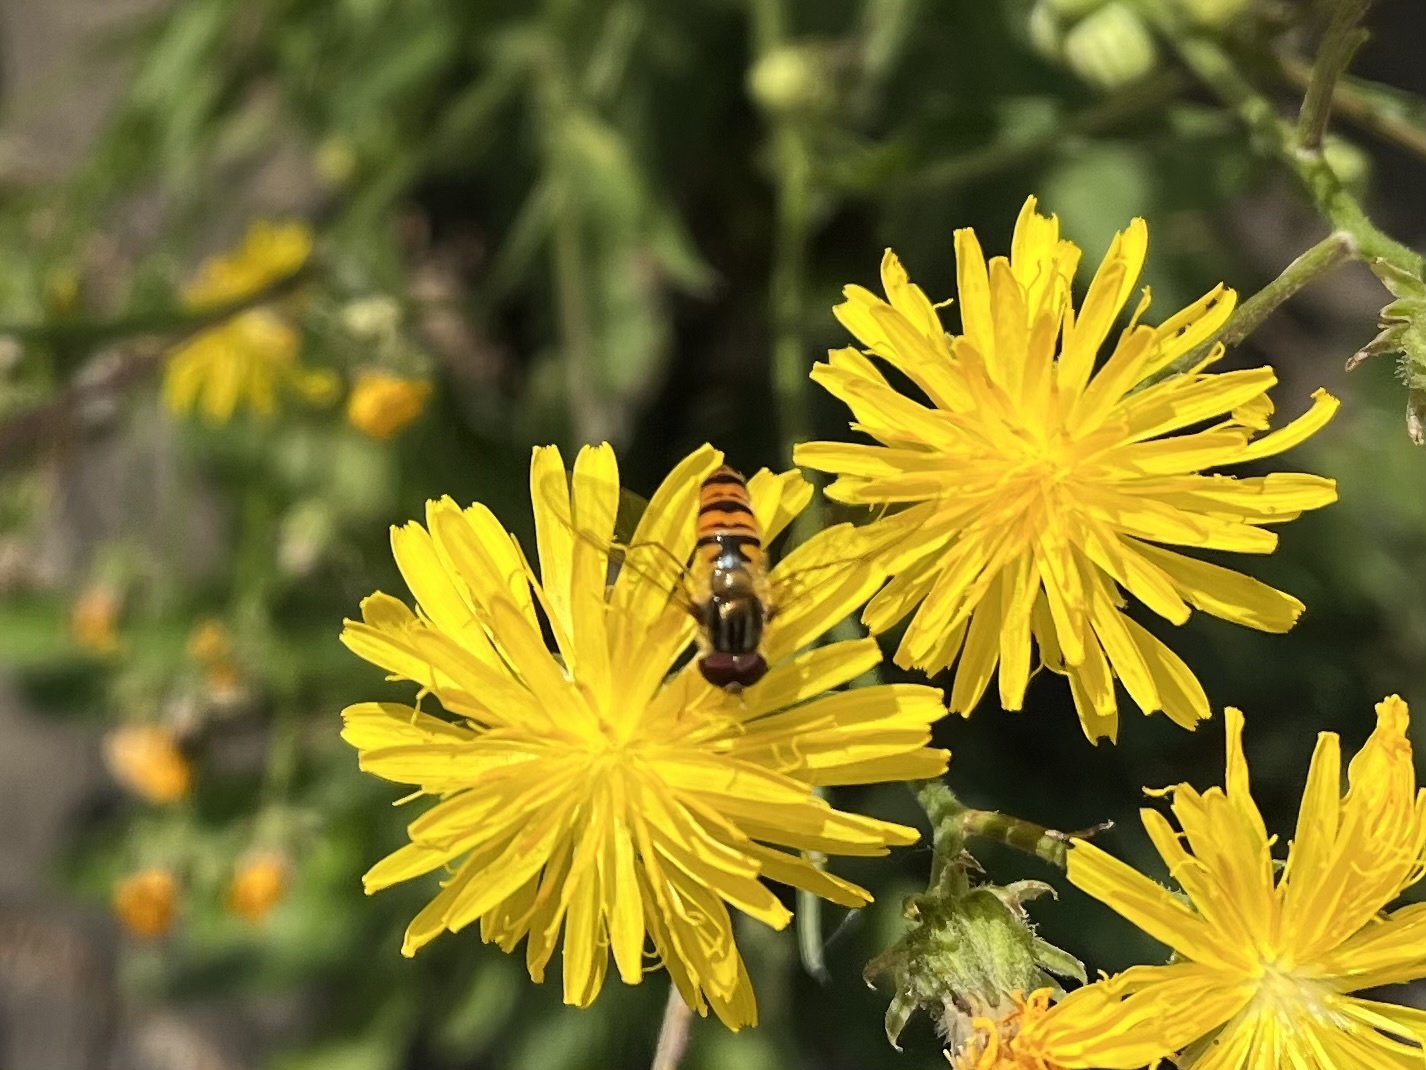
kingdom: Animalia
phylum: Arthropoda
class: Insecta
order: Diptera
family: Syrphidae
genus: Episyrphus
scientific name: Episyrphus balteatus
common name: Marmalade hoverfly
